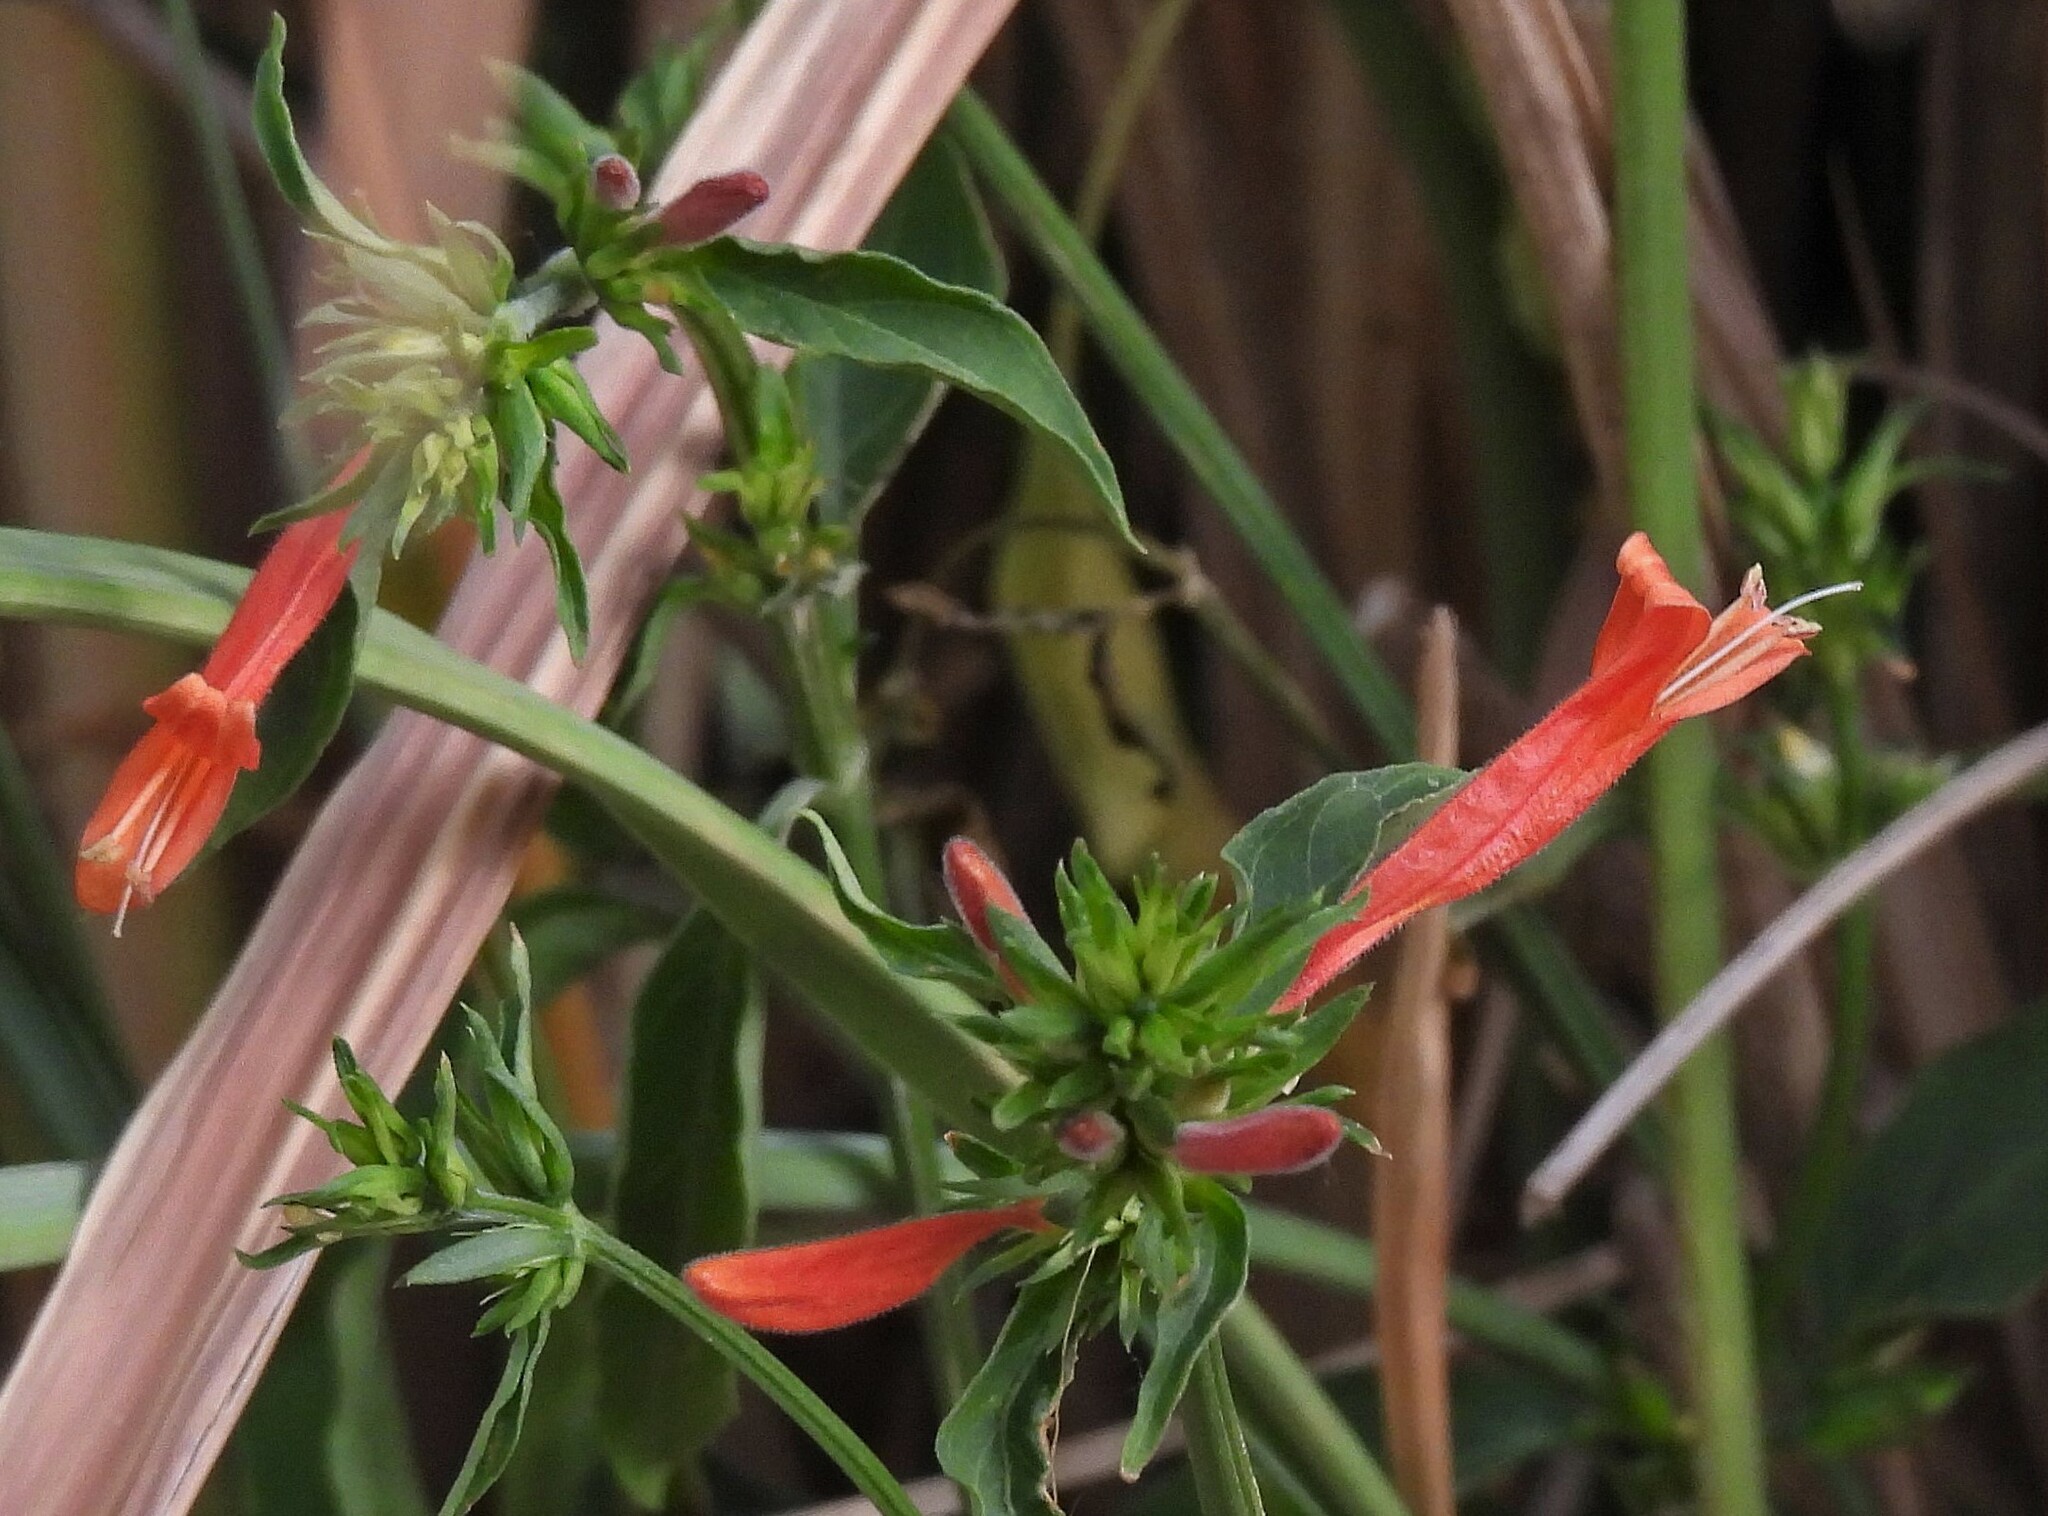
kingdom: Plantae
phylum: Tracheophyta
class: Magnoliopsida
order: Lamiales
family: Acanthaceae
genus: Dicliptera
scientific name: Dicliptera squarrosa
